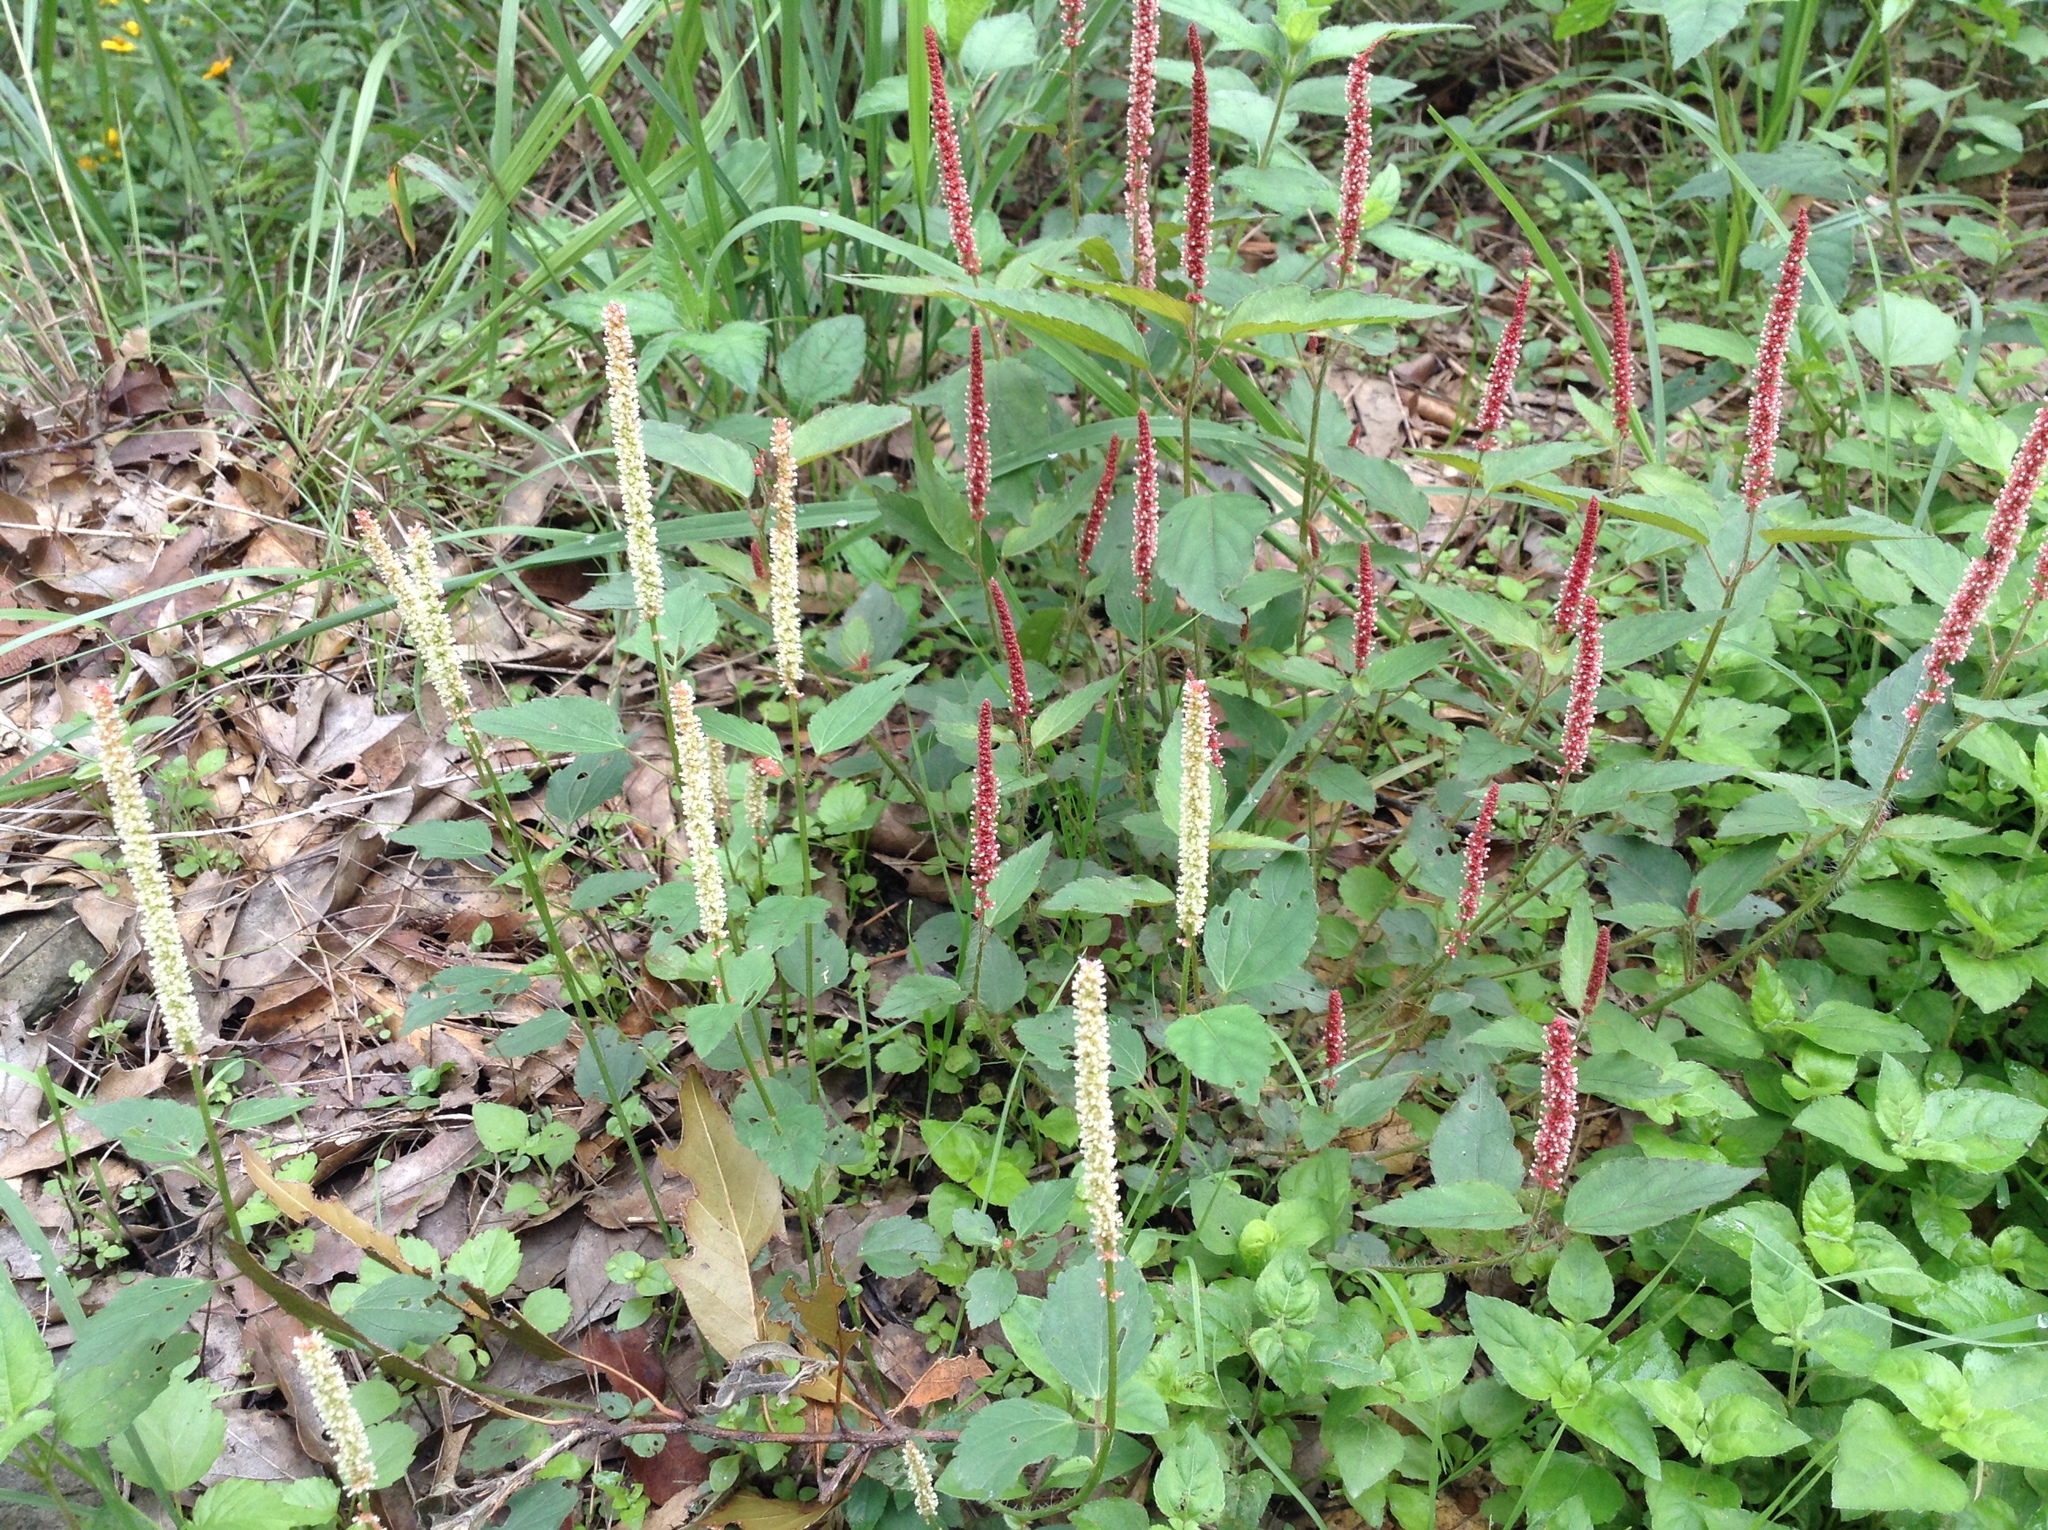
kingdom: Plantae
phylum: Tracheophyta
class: Magnoliopsida
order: Malpighiales
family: Euphorbiaceae
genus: Acalypha
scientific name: Acalypha phleoides
